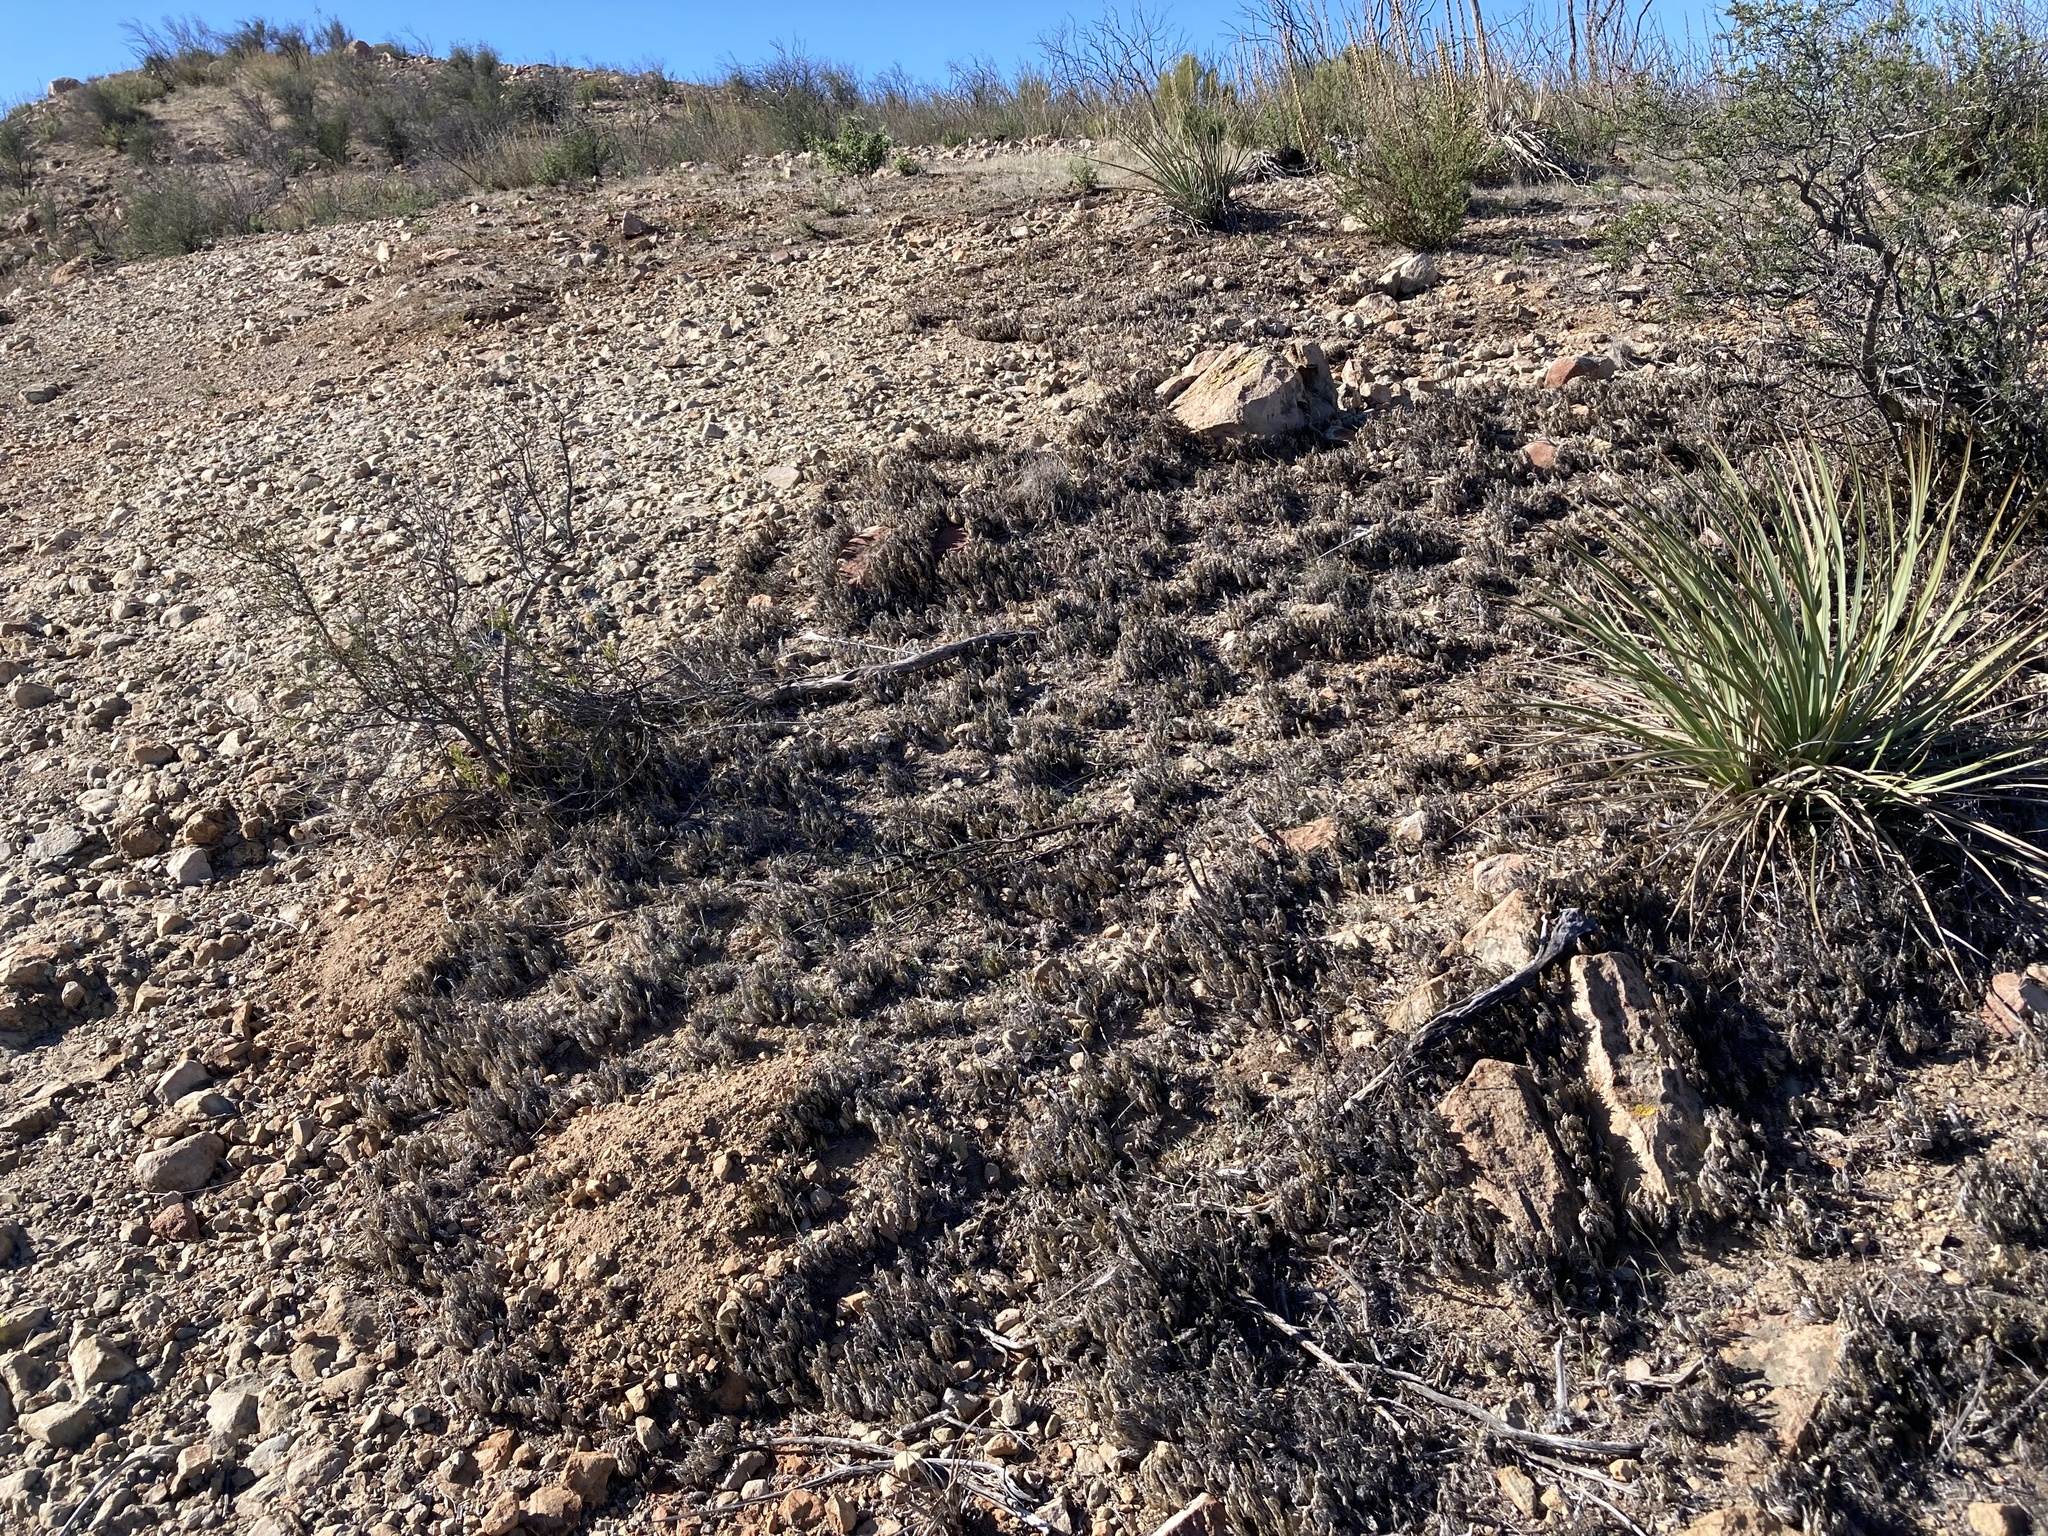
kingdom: Plantae
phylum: Tracheophyta
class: Lycopodiopsida
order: Selaginellales
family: Selaginellaceae
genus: Selaginella
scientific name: Selaginella bigelovii
